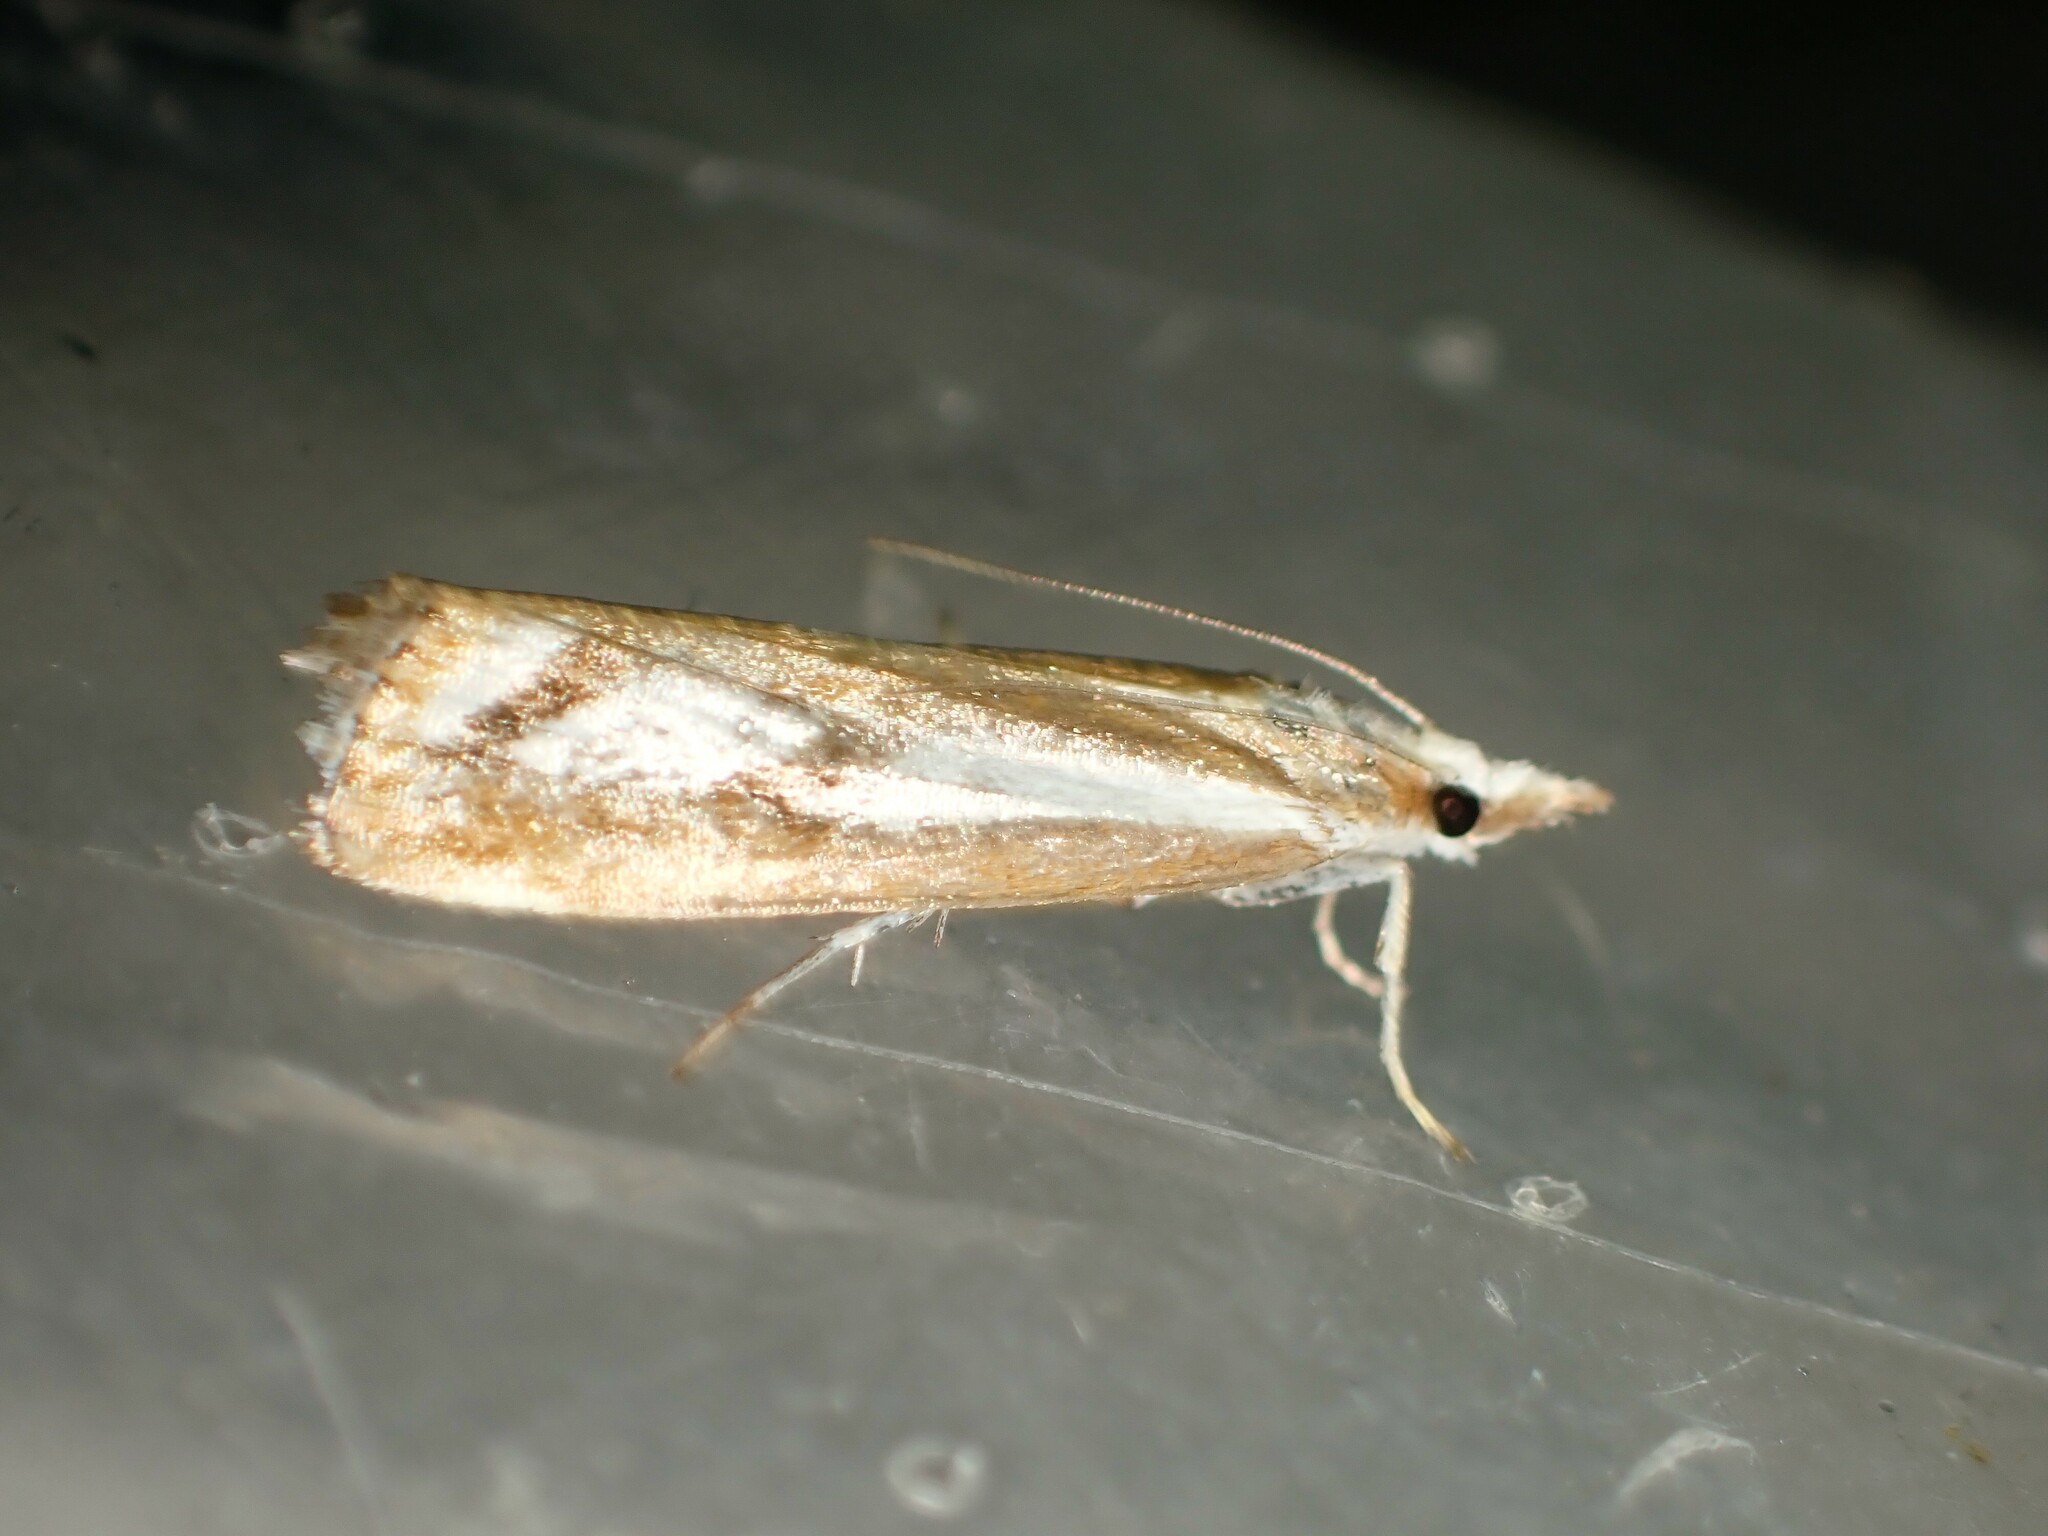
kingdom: Animalia
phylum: Arthropoda
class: Insecta
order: Lepidoptera
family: Crambidae
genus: Catoptria
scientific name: Catoptria latiradiellus
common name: Two-banded catoptria moth
